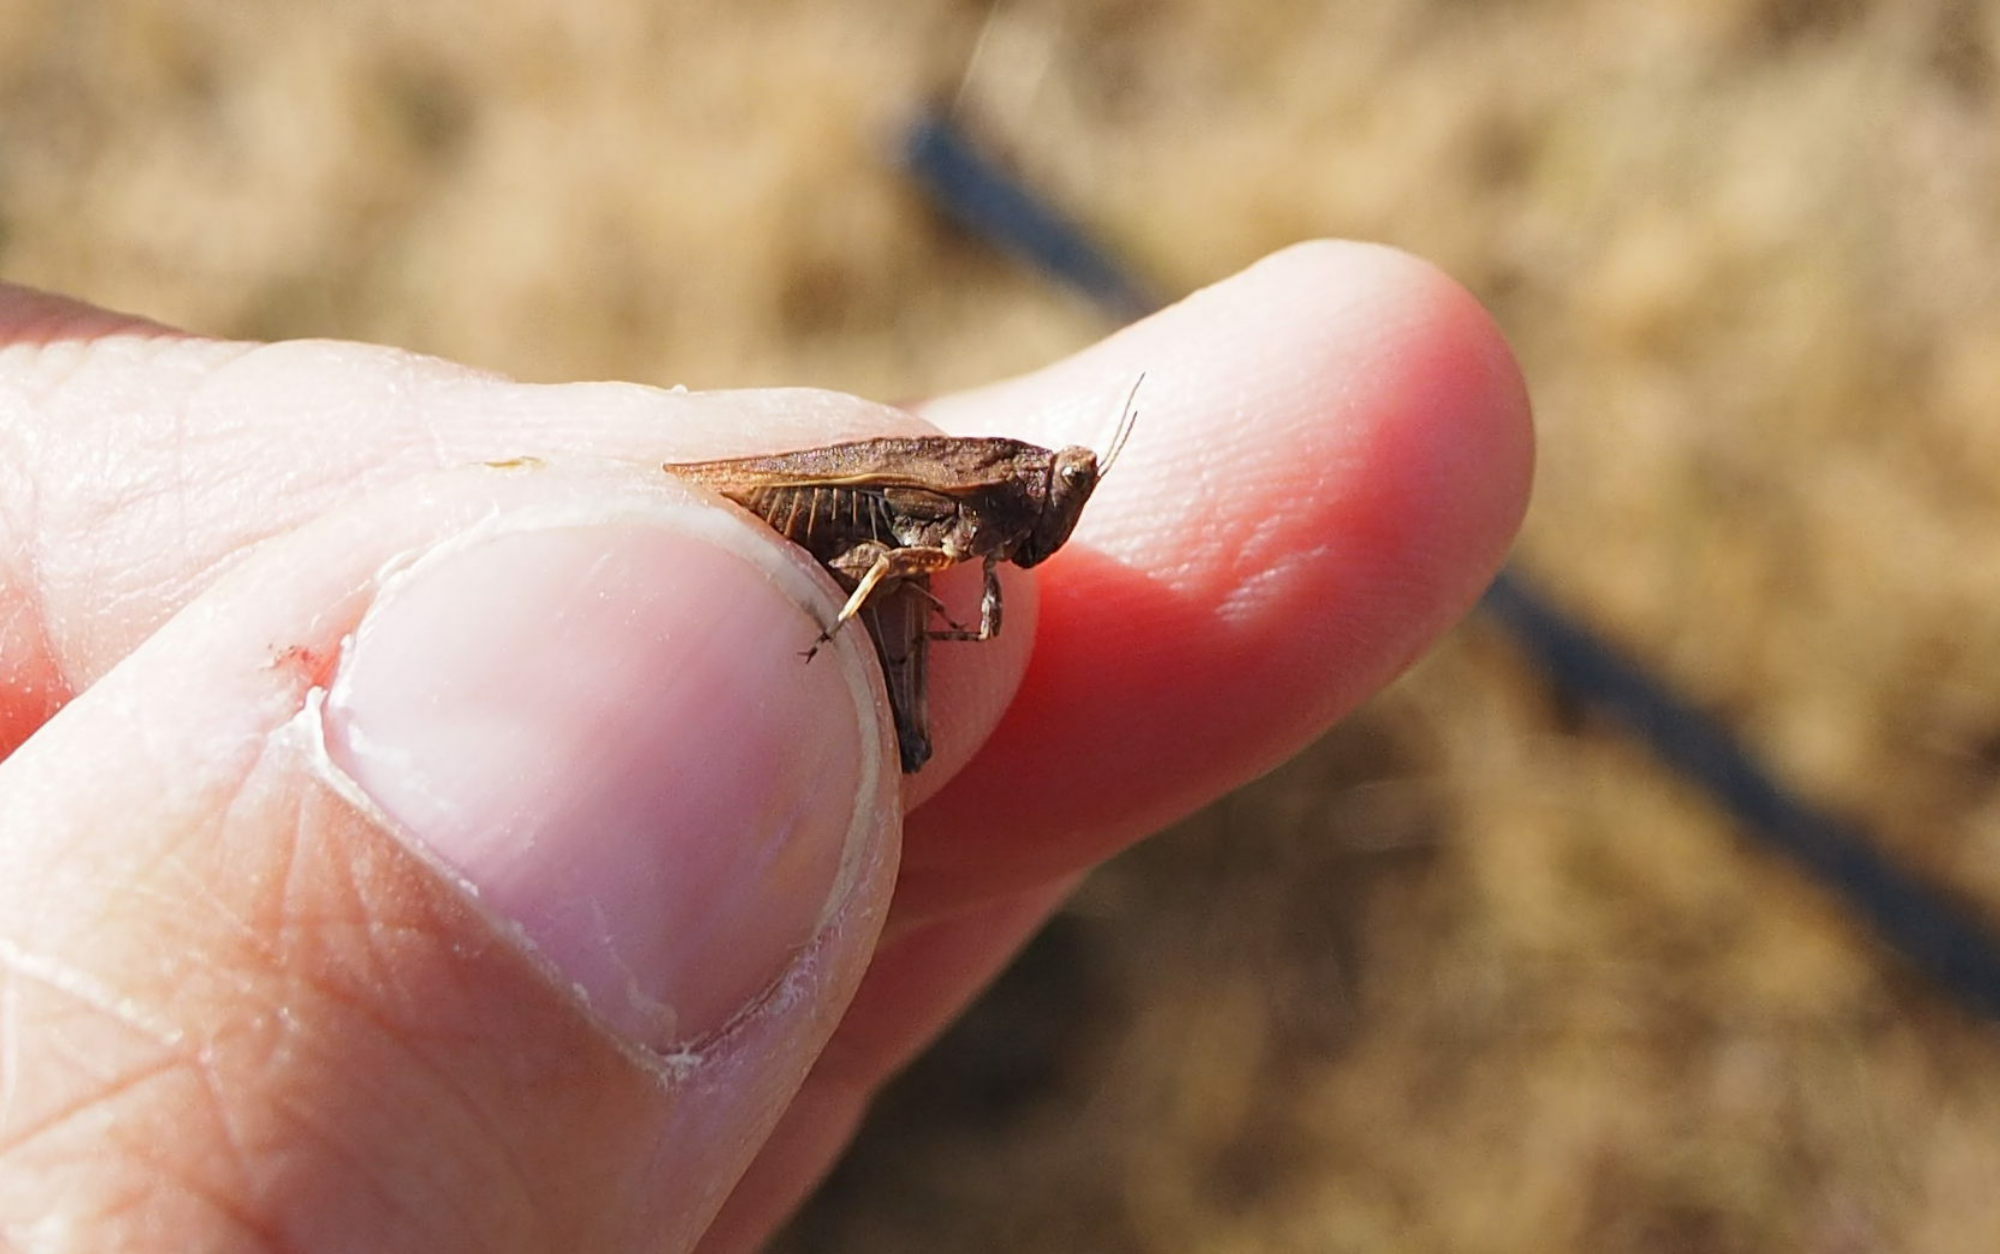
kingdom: Animalia
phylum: Arthropoda
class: Insecta
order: Orthoptera
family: Tetrigidae
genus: Tetrix
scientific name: Tetrix undulata
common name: Common groundhopper
